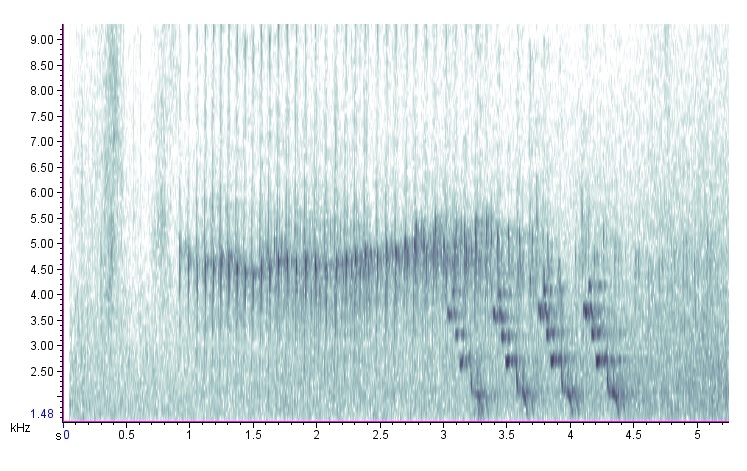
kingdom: Animalia
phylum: Chordata
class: Aves
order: Passeriformes
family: Icteridae
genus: Molothrus
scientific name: Molothrus ater
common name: Brown-headed cowbird
